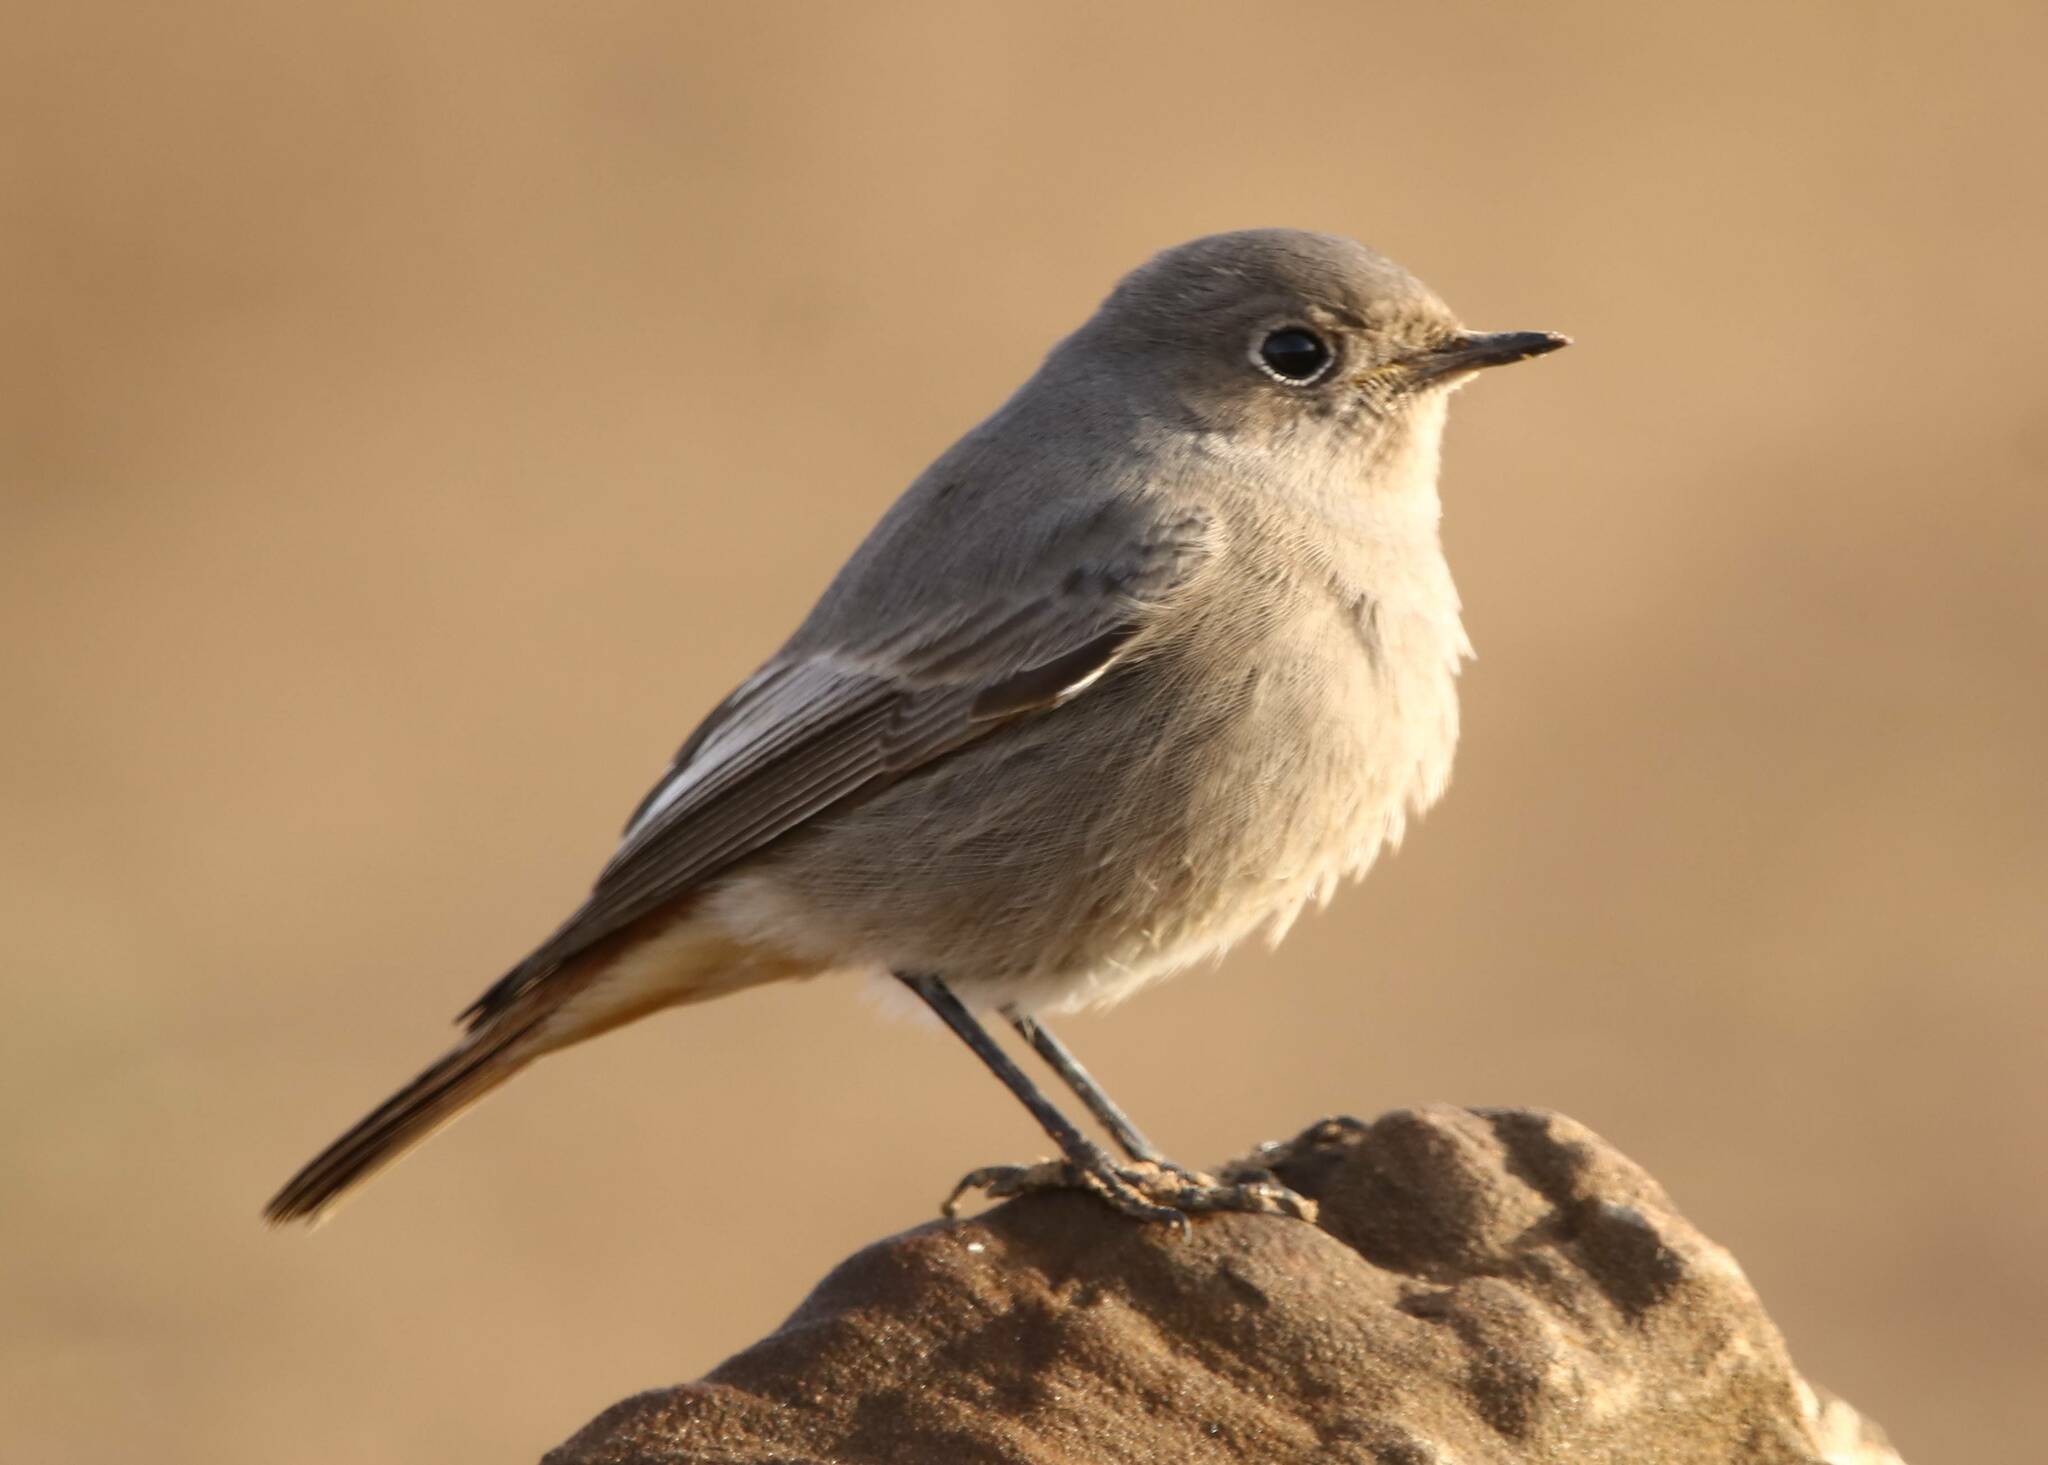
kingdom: Animalia
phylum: Chordata
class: Aves
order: Passeriformes
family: Muscicapidae
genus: Phoenicurus
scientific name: Phoenicurus ochruros
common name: Black redstart
